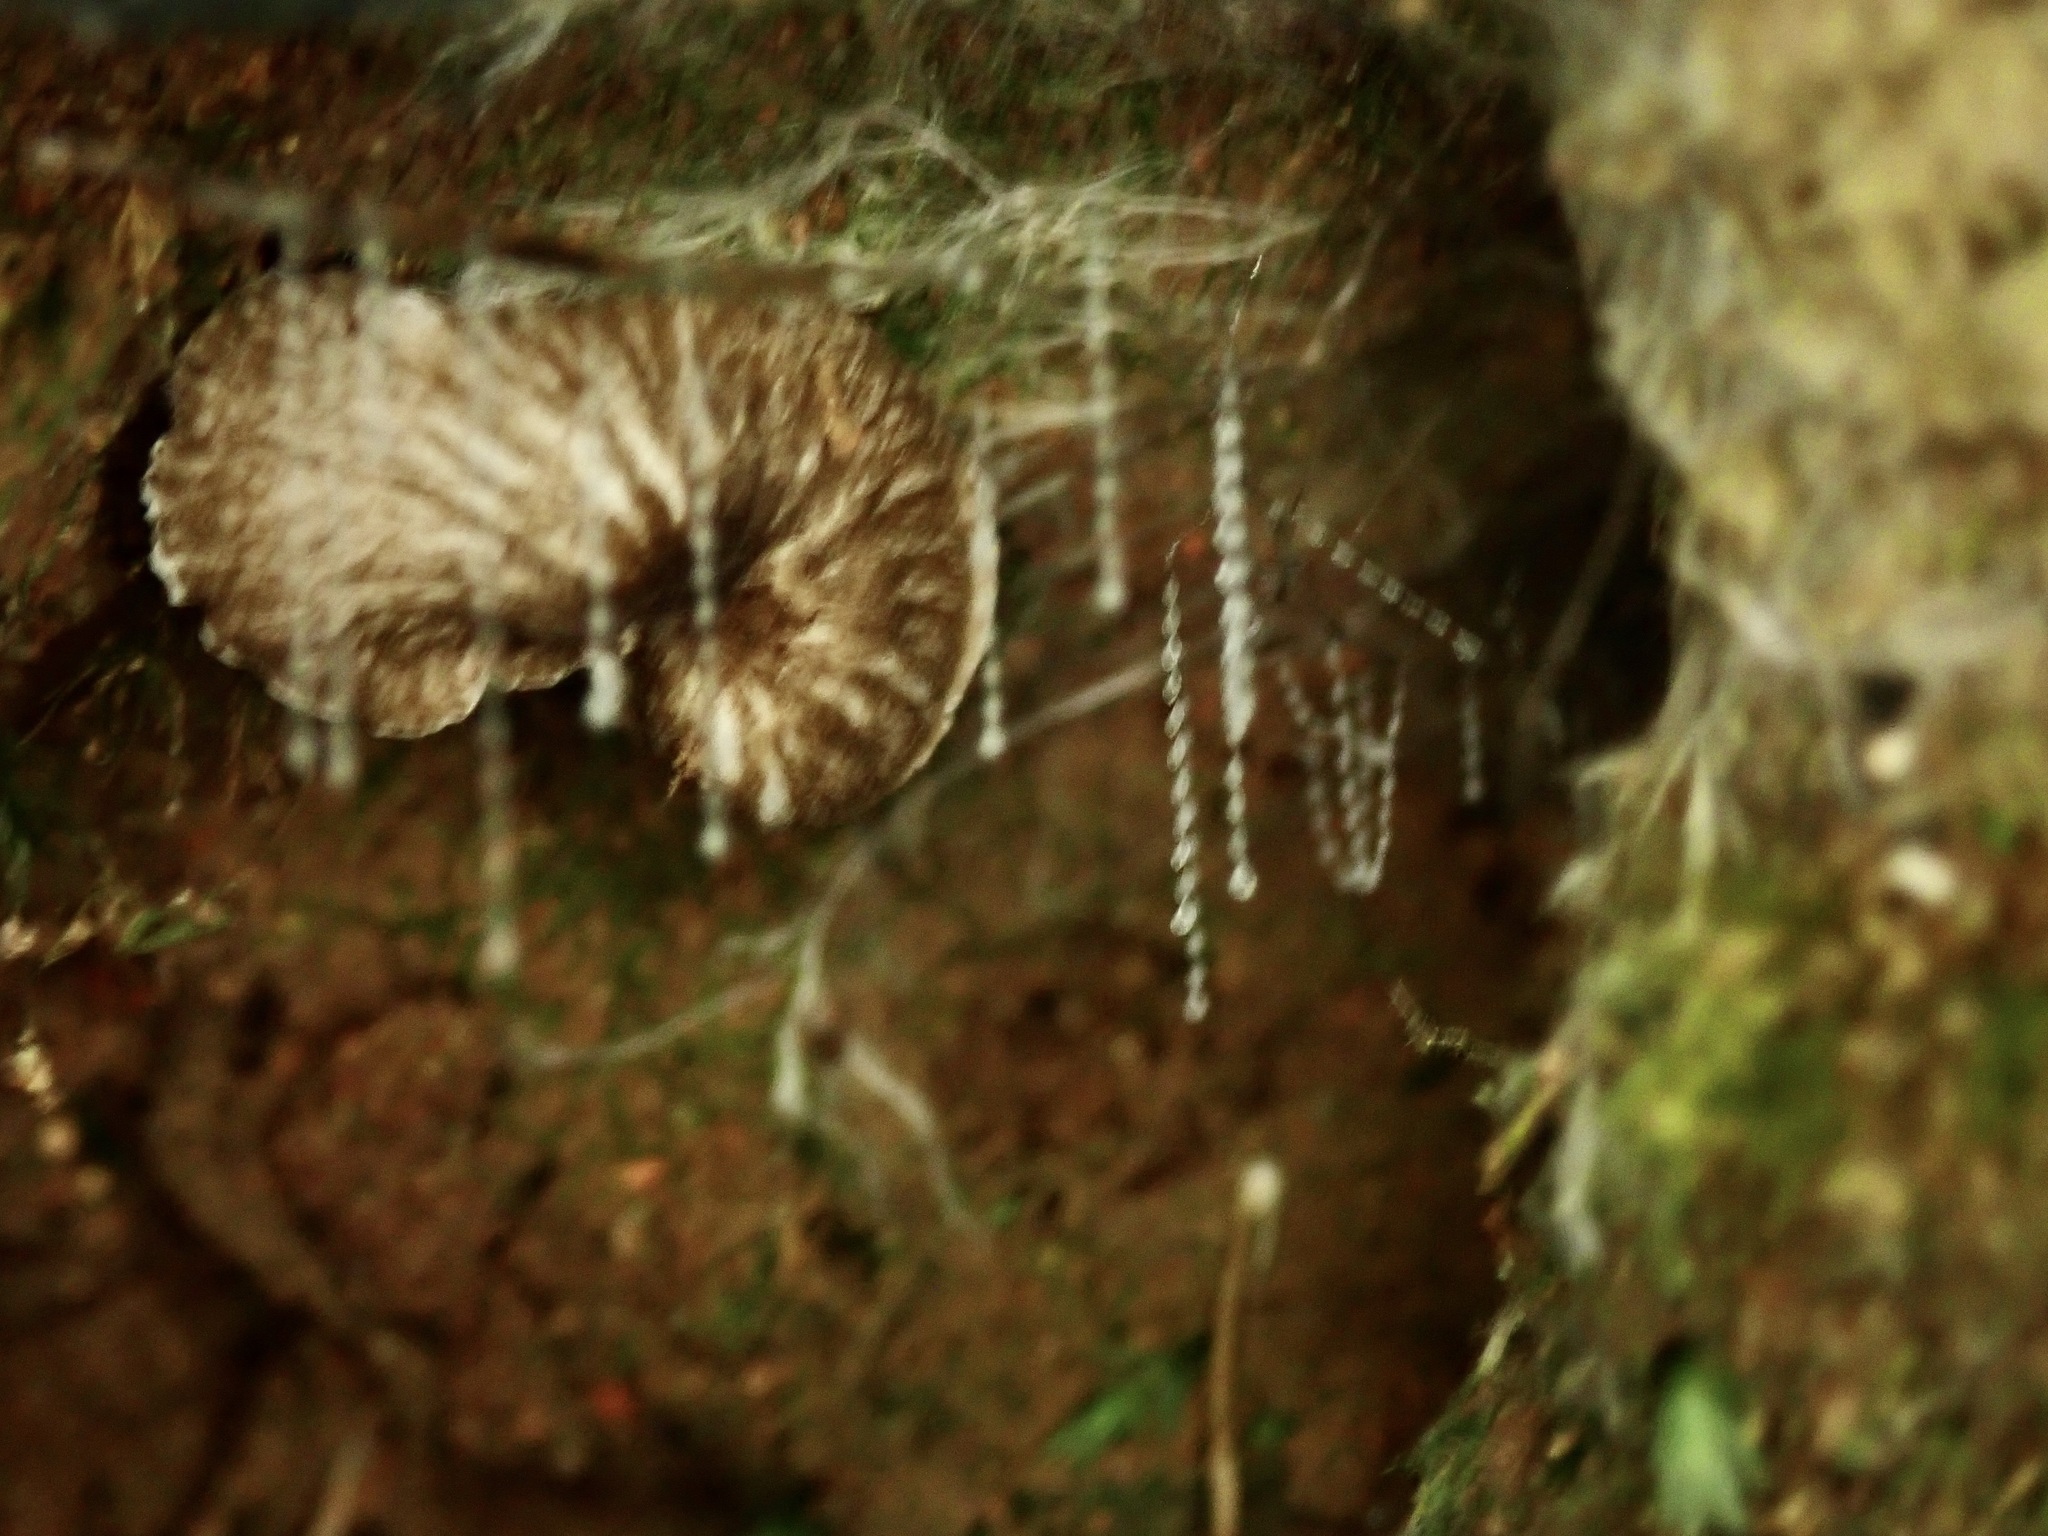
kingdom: Animalia
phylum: Arthropoda
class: Insecta
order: Diptera
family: Keroplatidae
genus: Arachnocampa
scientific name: Arachnocampa luminosa
